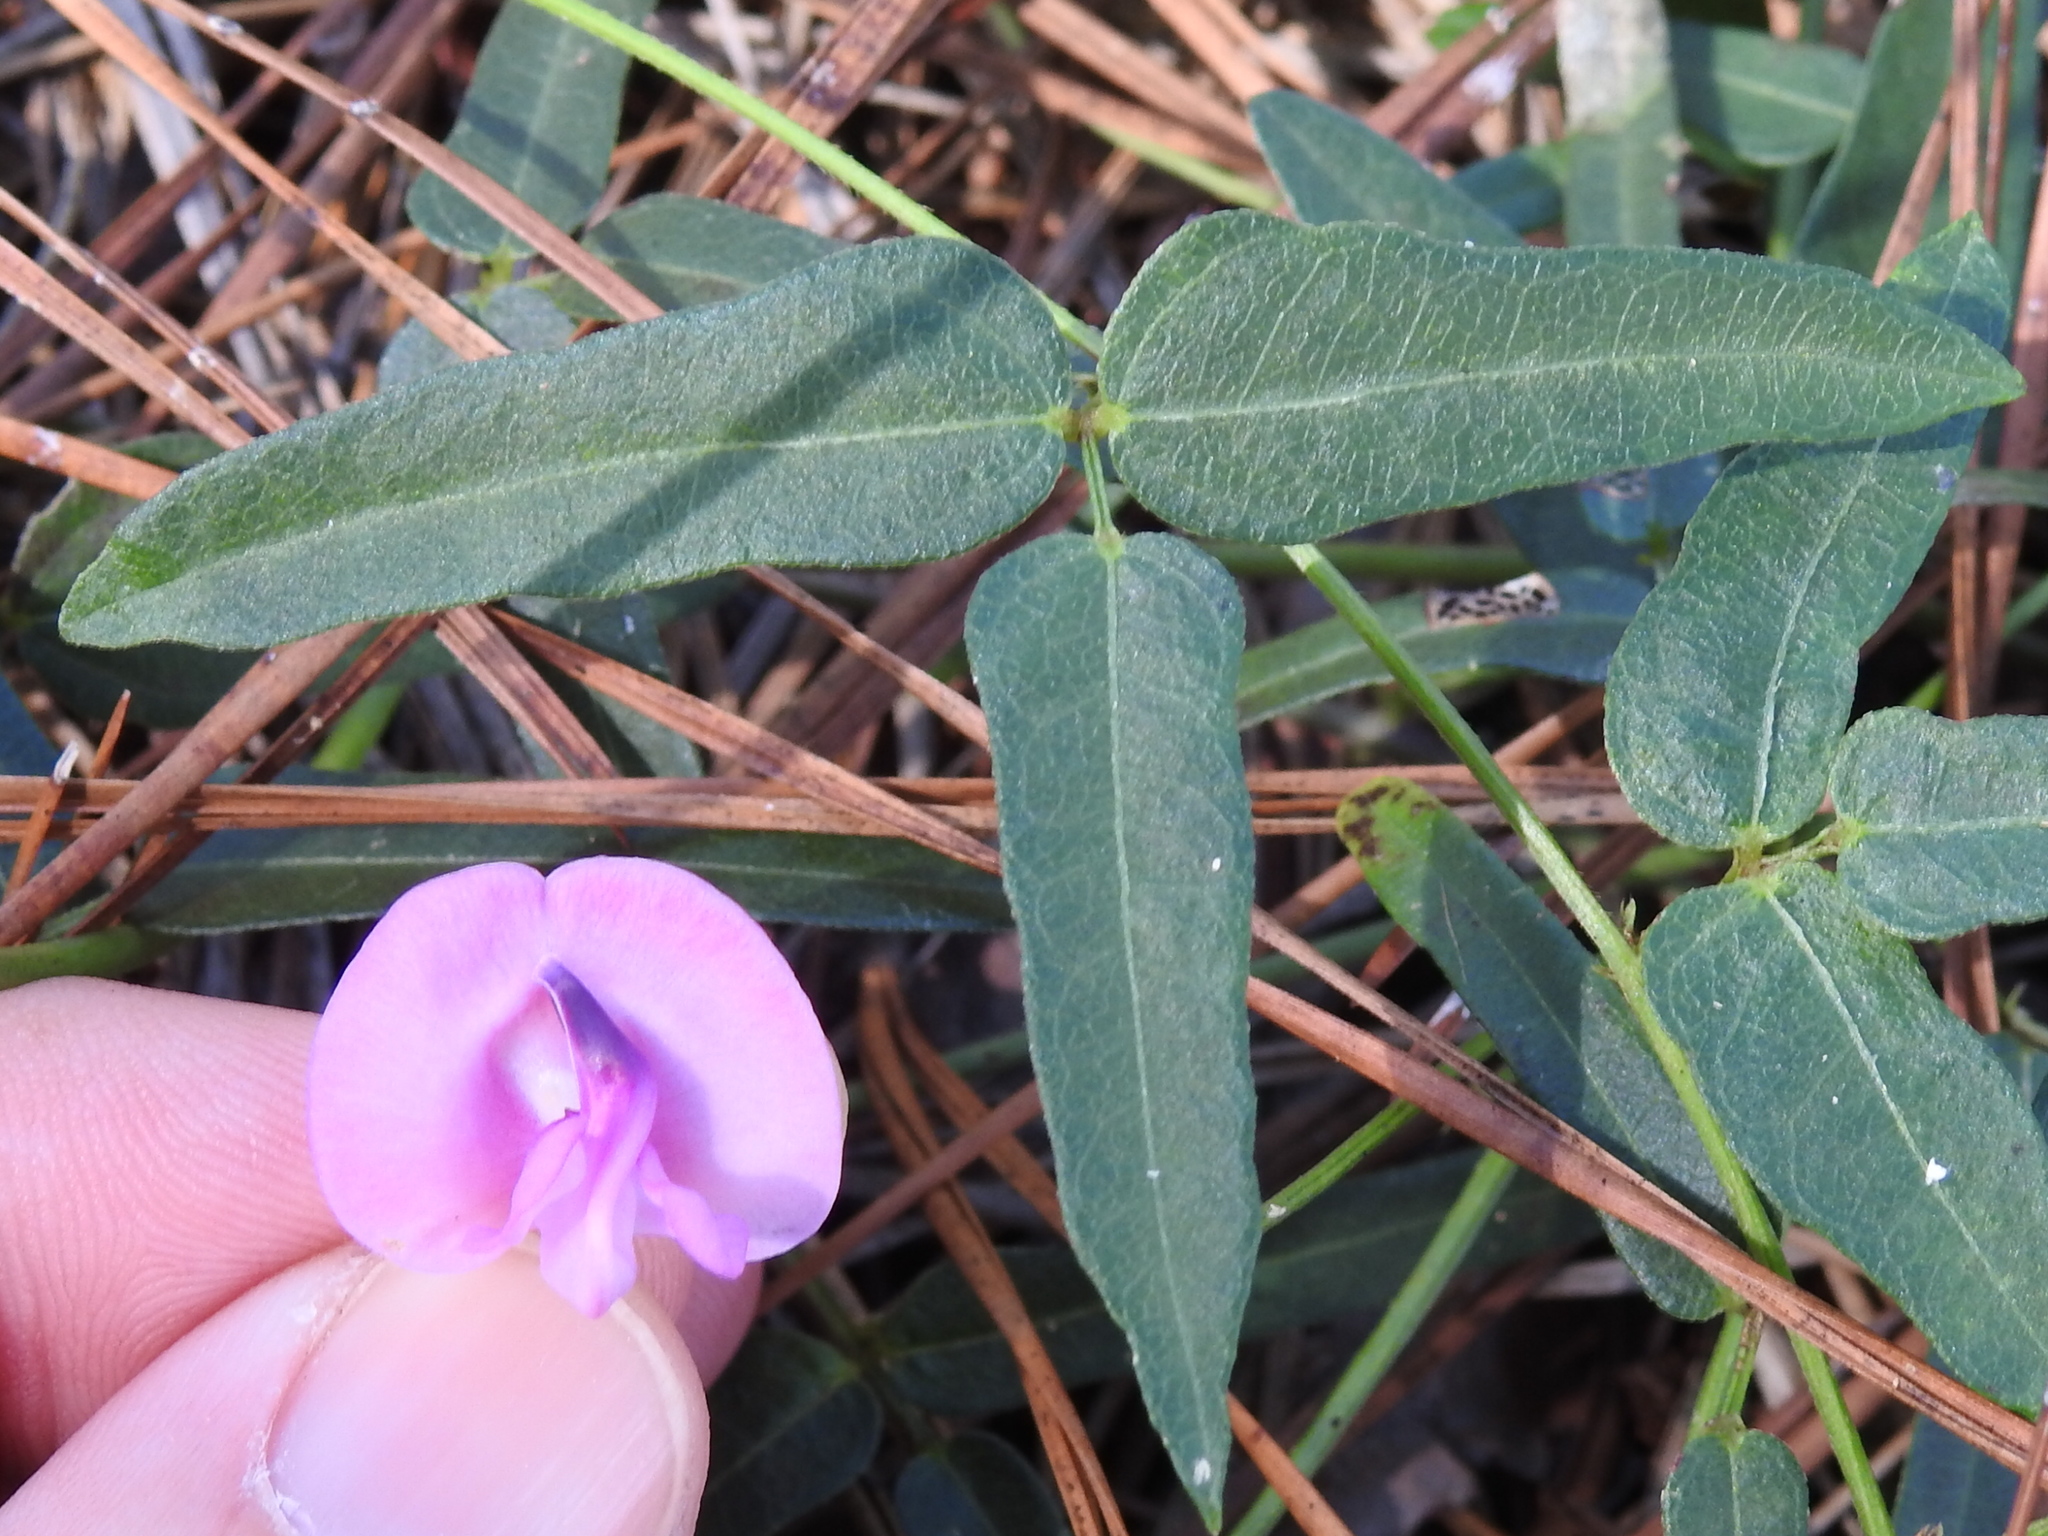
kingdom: Plantae
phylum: Tracheophyta
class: Magnoliopsida
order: Fabales
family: Fabaceae
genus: Strophostyles
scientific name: Strophostyles umbellata
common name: Perennial wild bean
